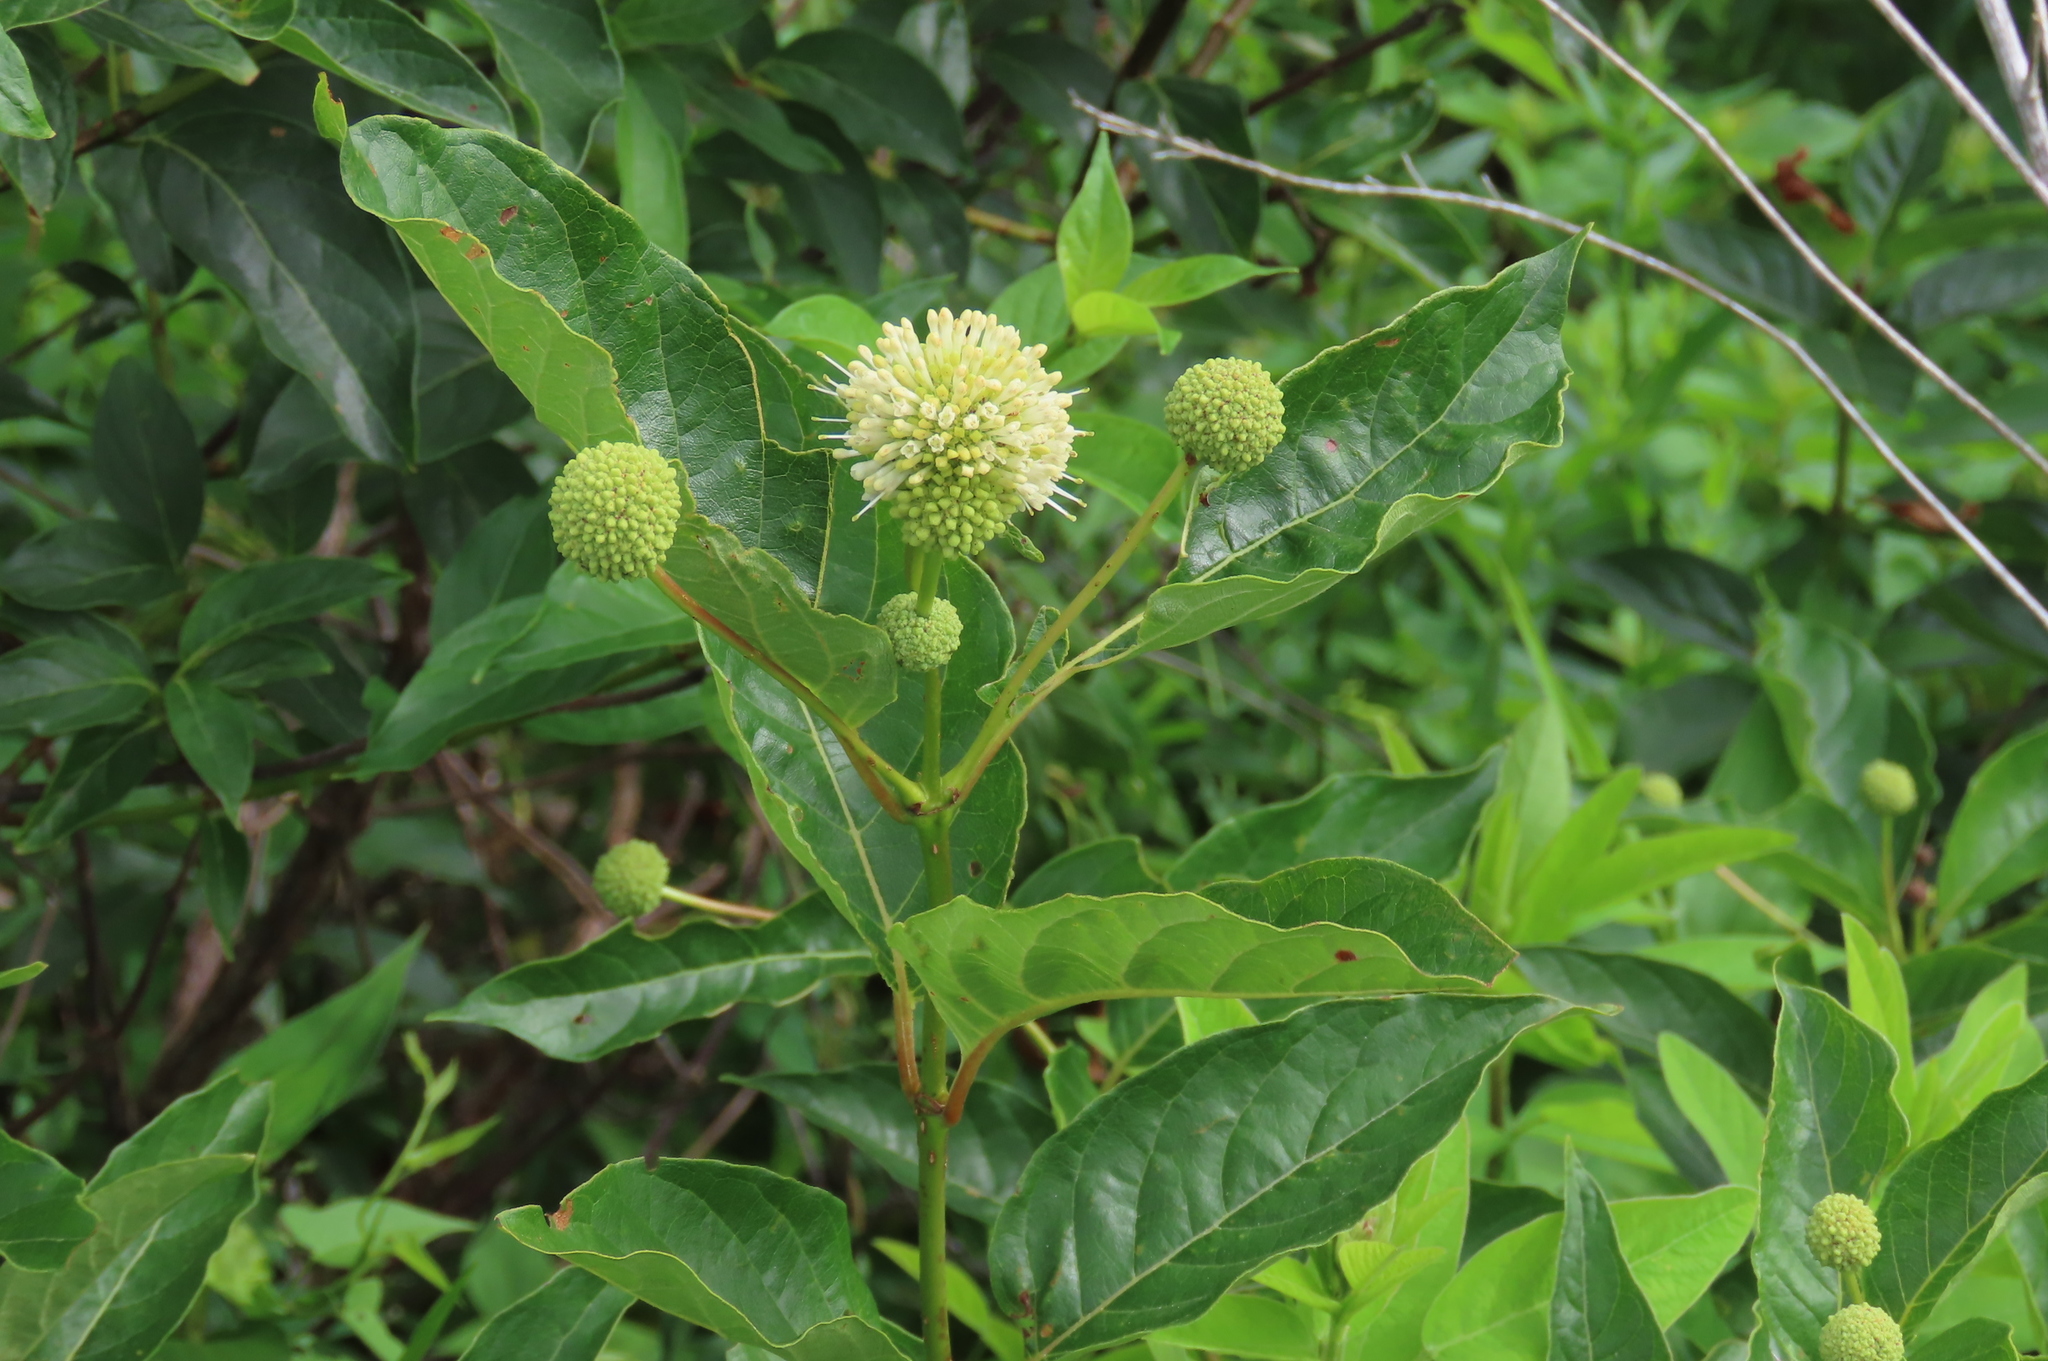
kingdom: Plantae
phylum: Tracheophyta
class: Magnoliopsida
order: Gentianales
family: Rubiaceae
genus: Cephalanthus
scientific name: Cephalanthus occidentalis
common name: Button-willow
